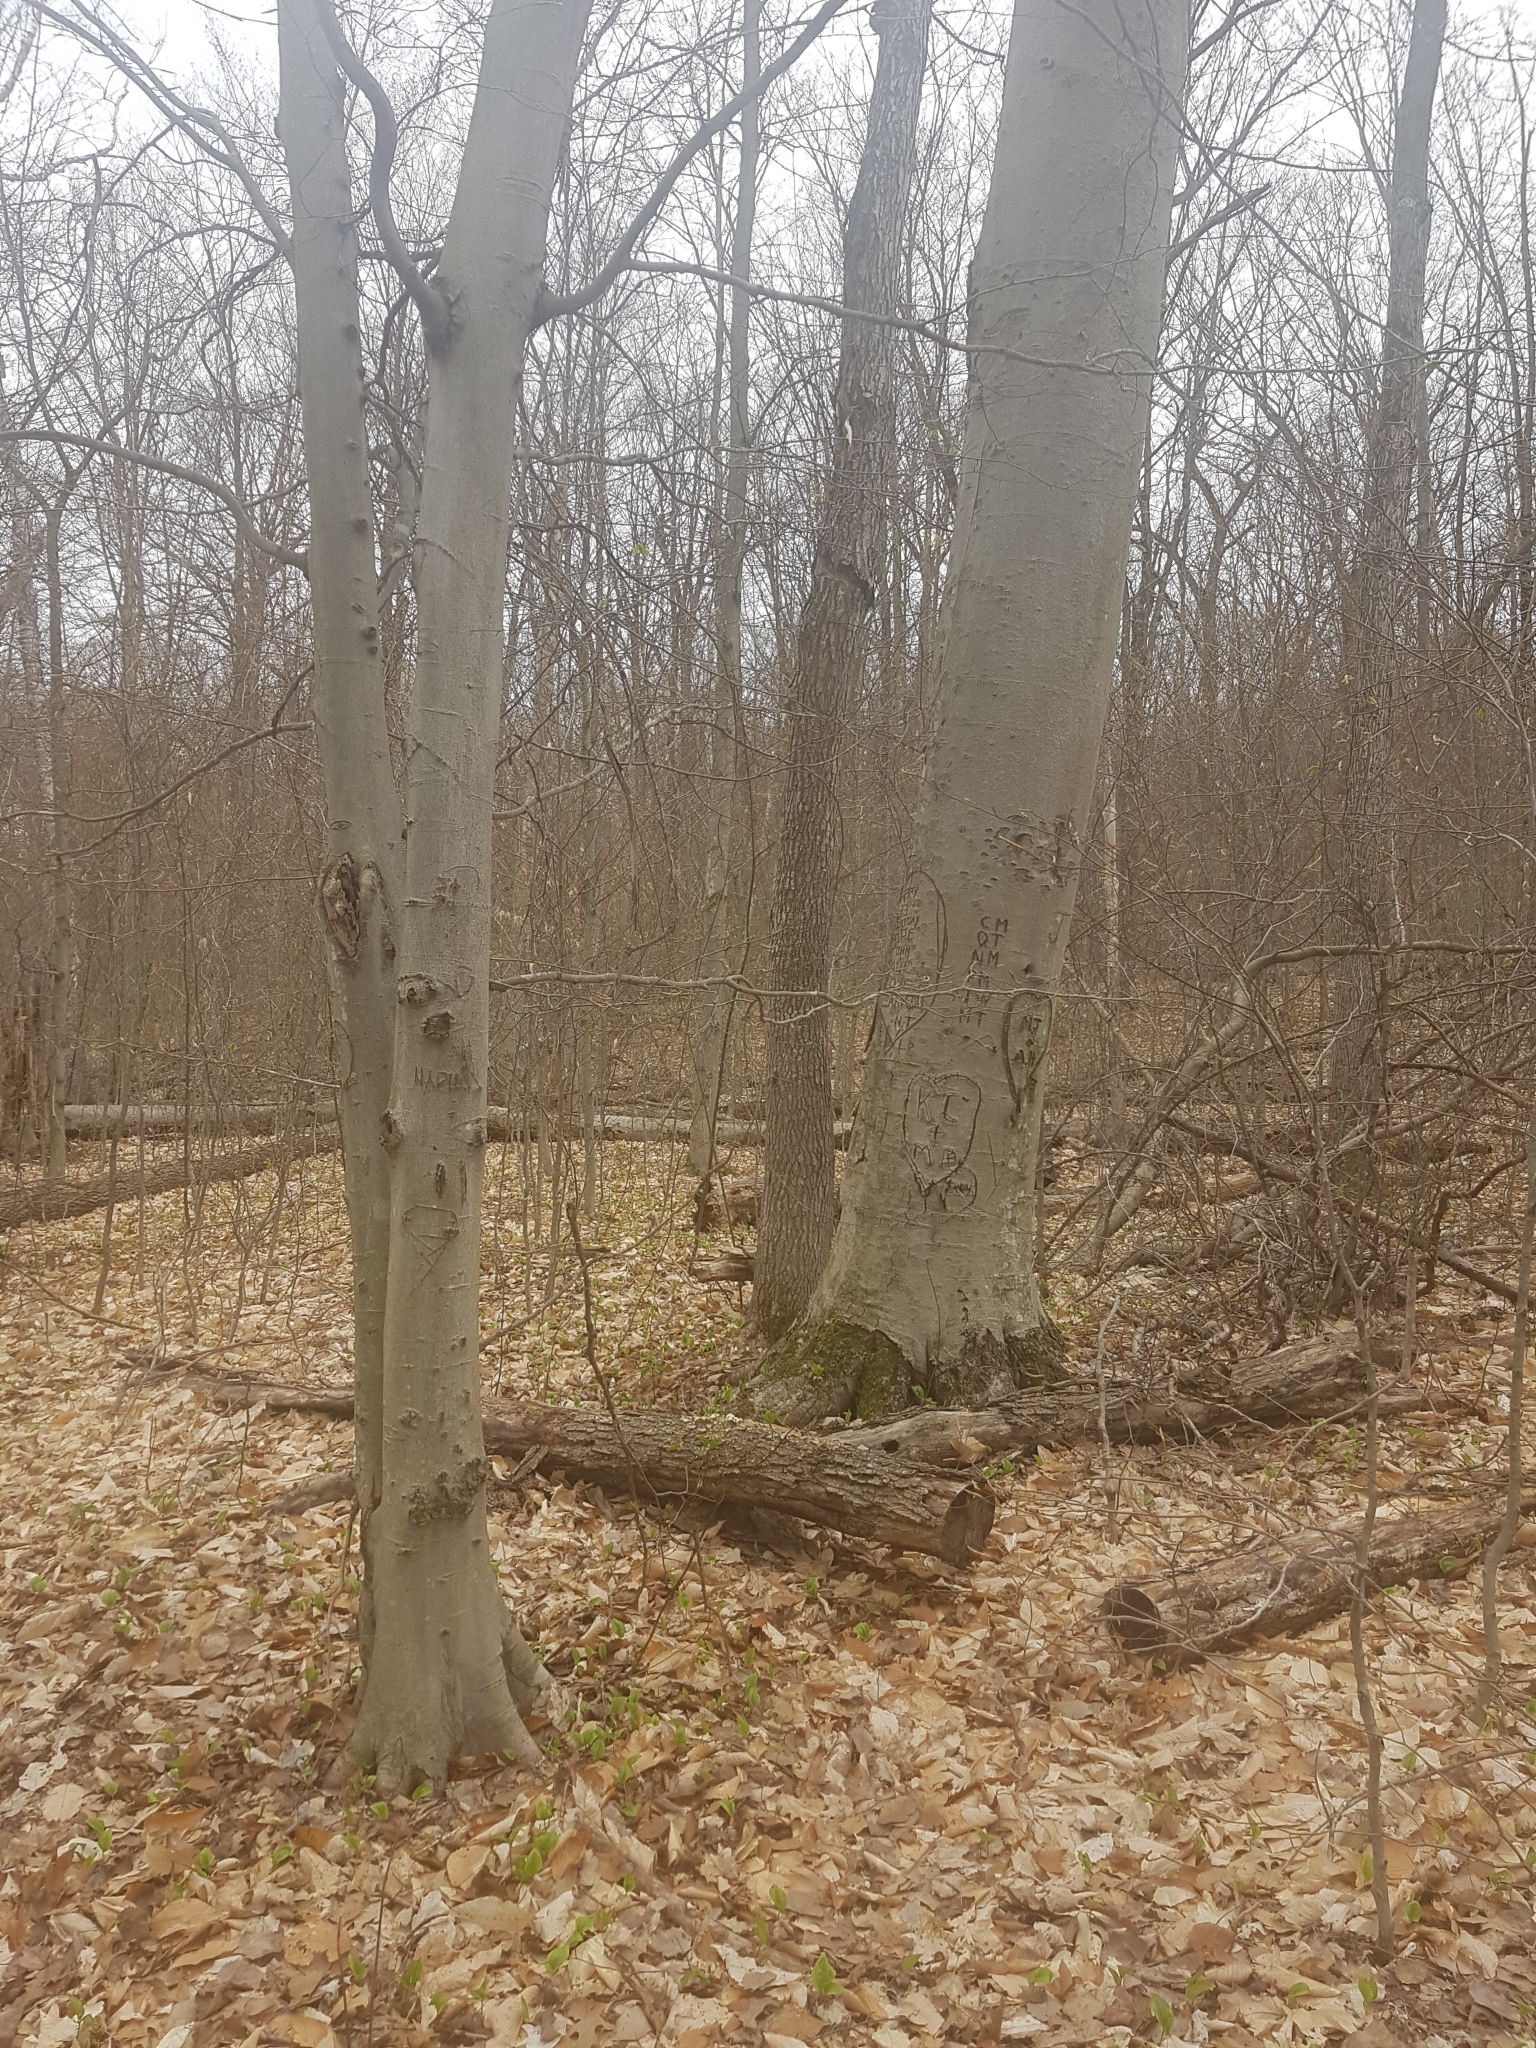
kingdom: Plantae
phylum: Tracheophyta
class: Magnoliopsida
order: Fagales
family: Fagaceae
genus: Fagus
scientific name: Fagus grandifolia
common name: American beech
